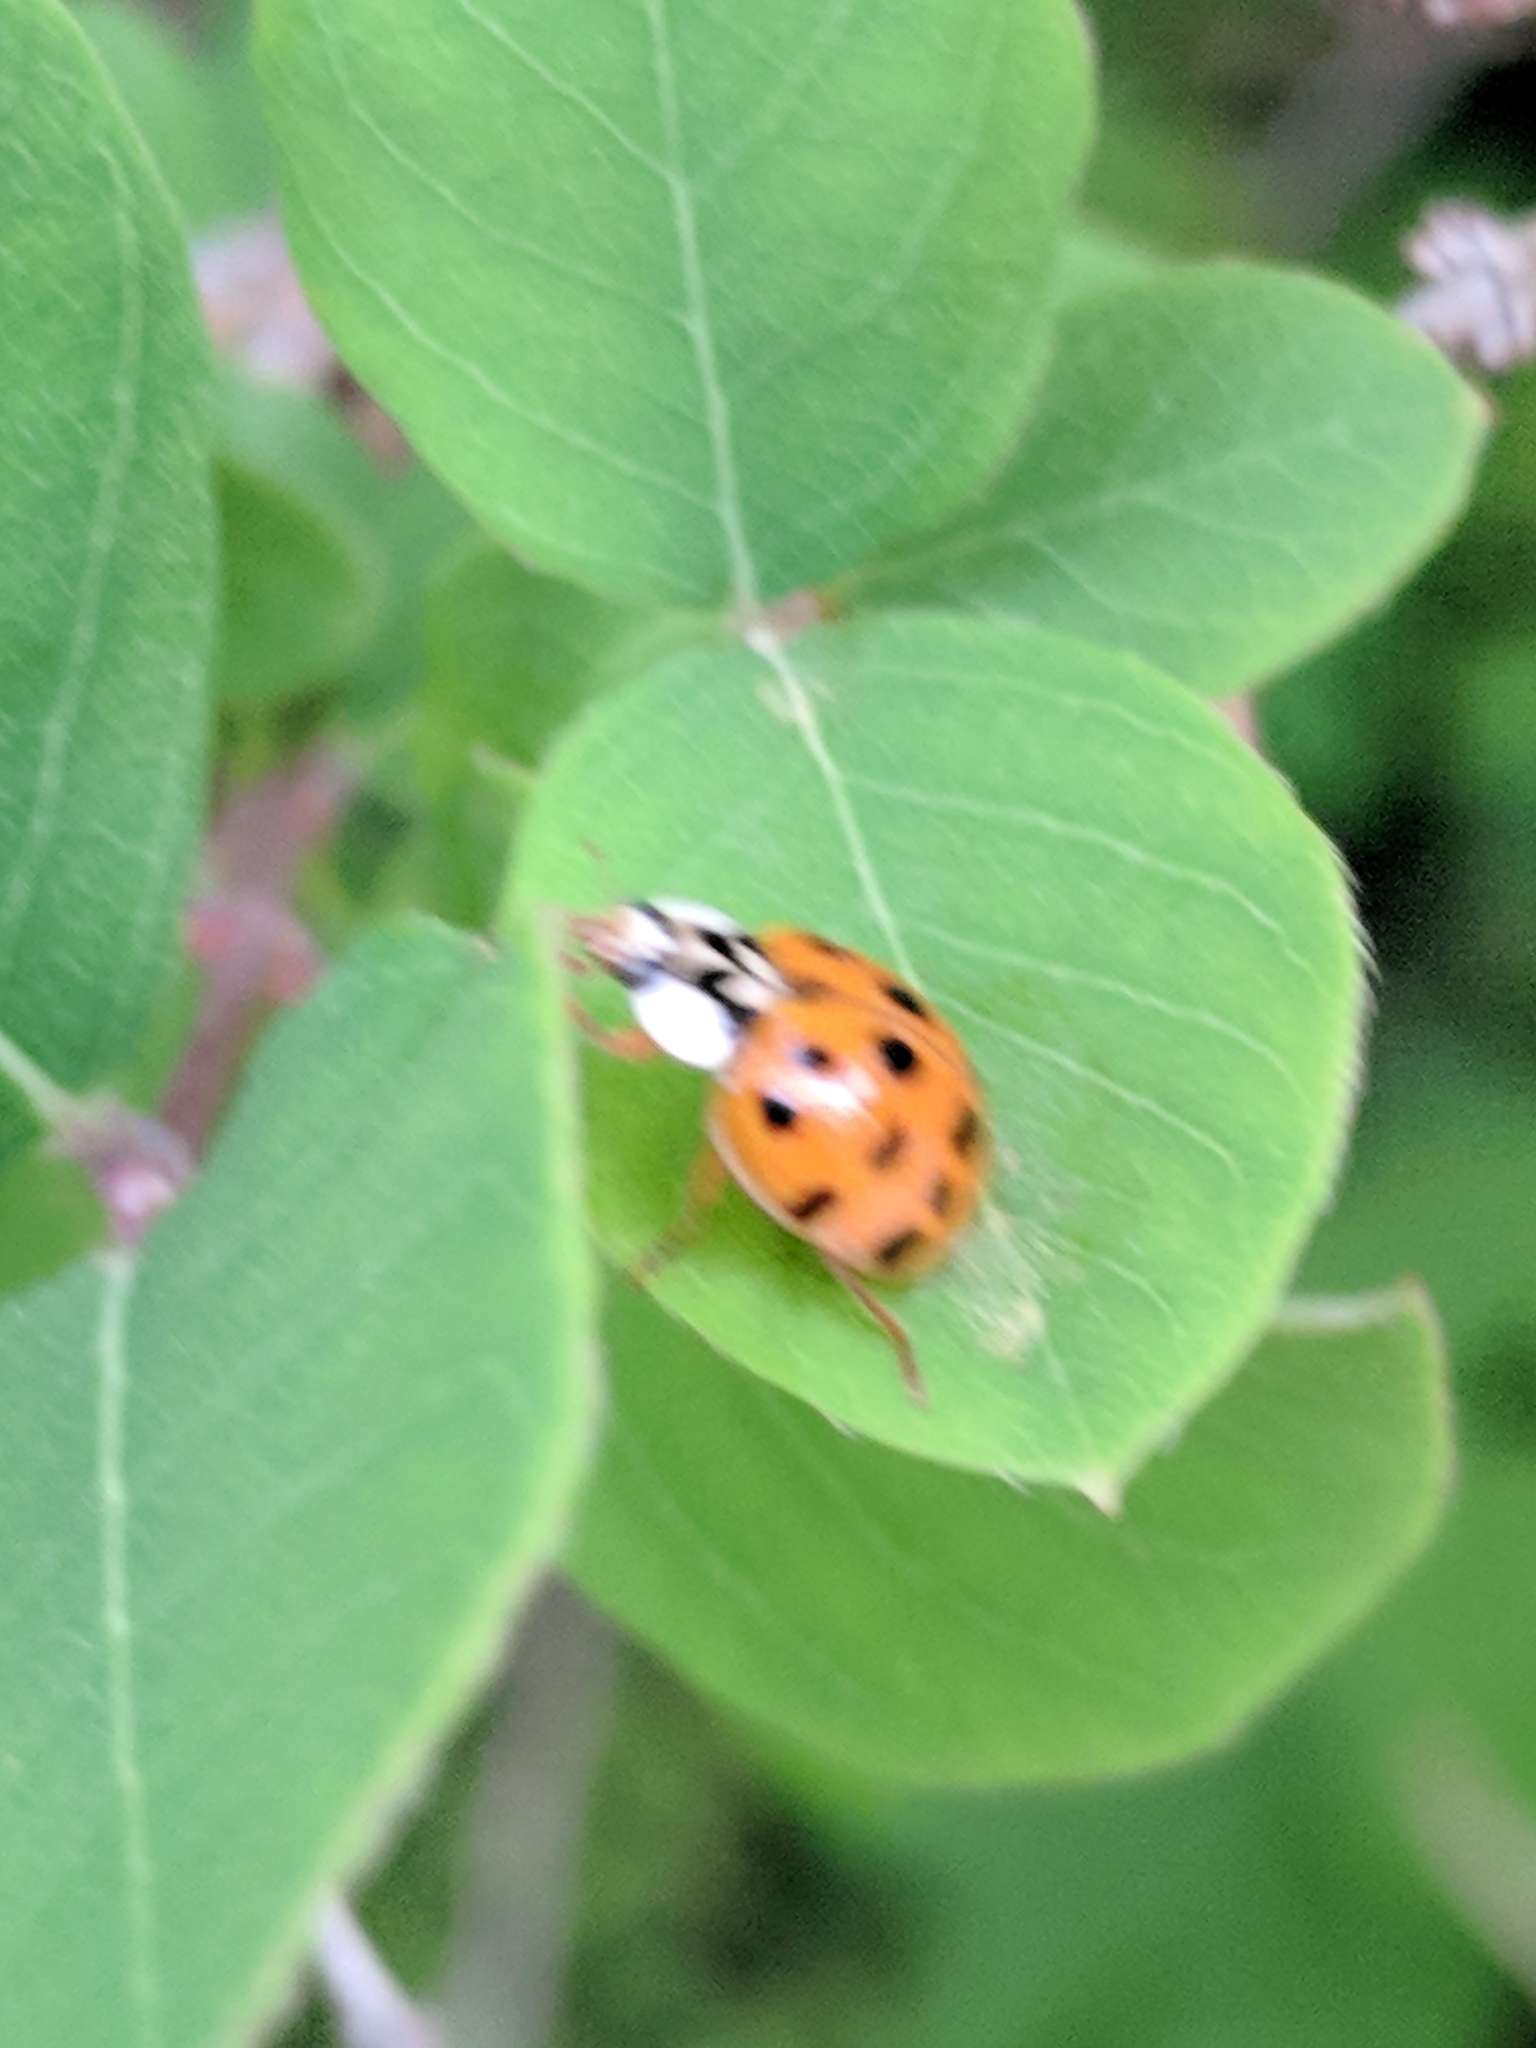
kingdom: Animalia
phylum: Arthropoda
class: Insecta
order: Coleoptera
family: Coccinellidae
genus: Harmonia
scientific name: Harmonia axyridis
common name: Harlequin ladybird
